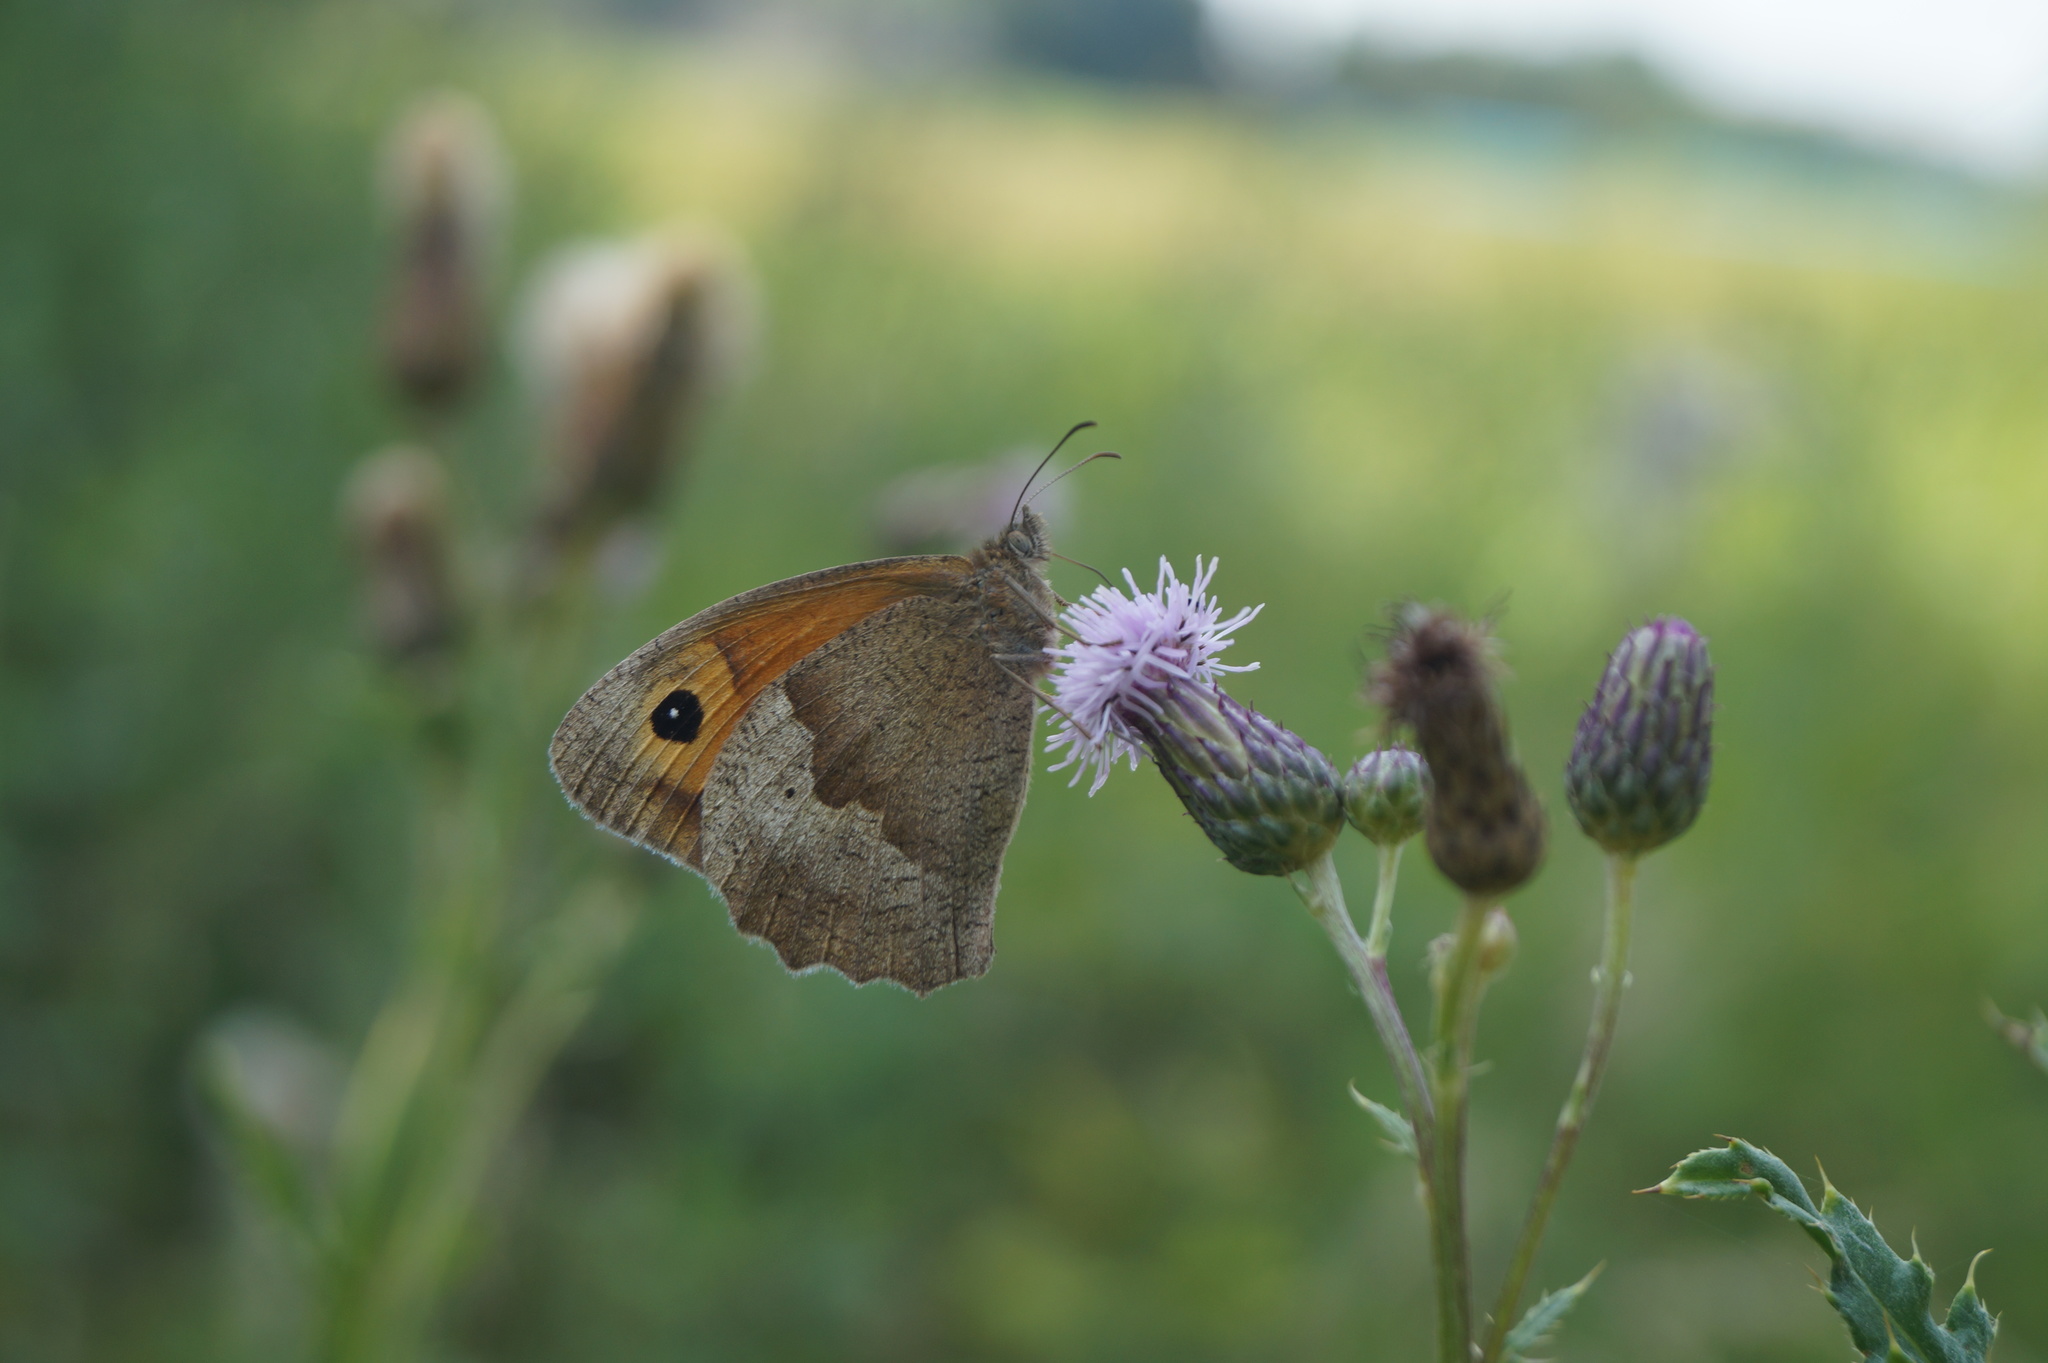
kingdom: Animalia
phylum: Arthropoda
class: Insecta
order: Lepidoptera
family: Nymphalidae
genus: Maniola
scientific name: Maniola jurtina
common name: Meadow brown
